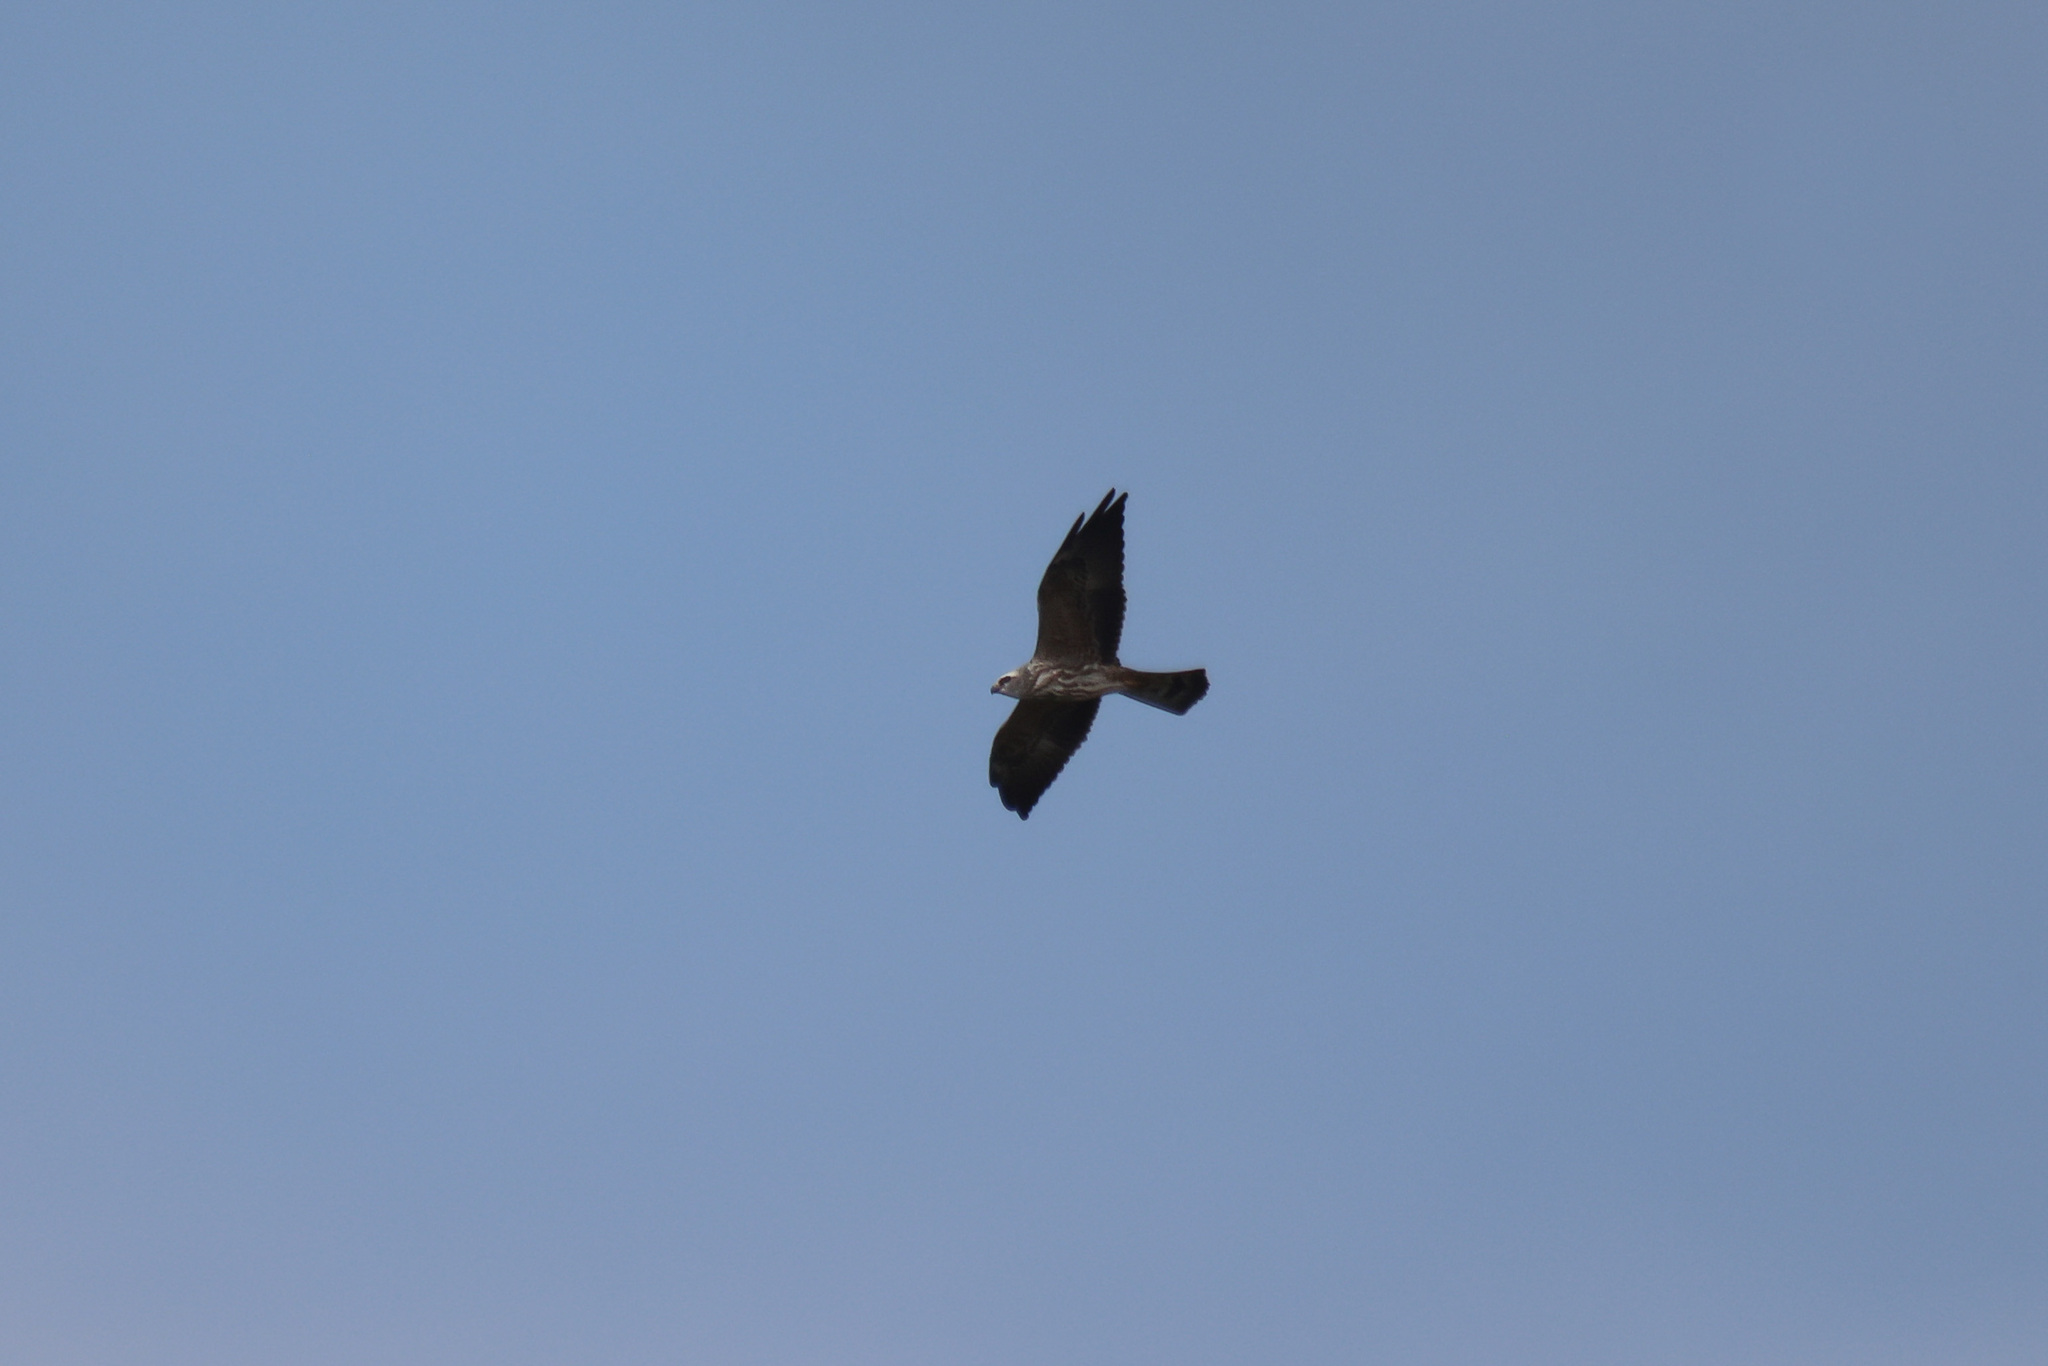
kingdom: Animalia
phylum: Chordata
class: Aves
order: Accipitriformes
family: Accipitridae
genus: Ictinia
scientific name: Ictinia mississippiensis
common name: Mississippi kite
